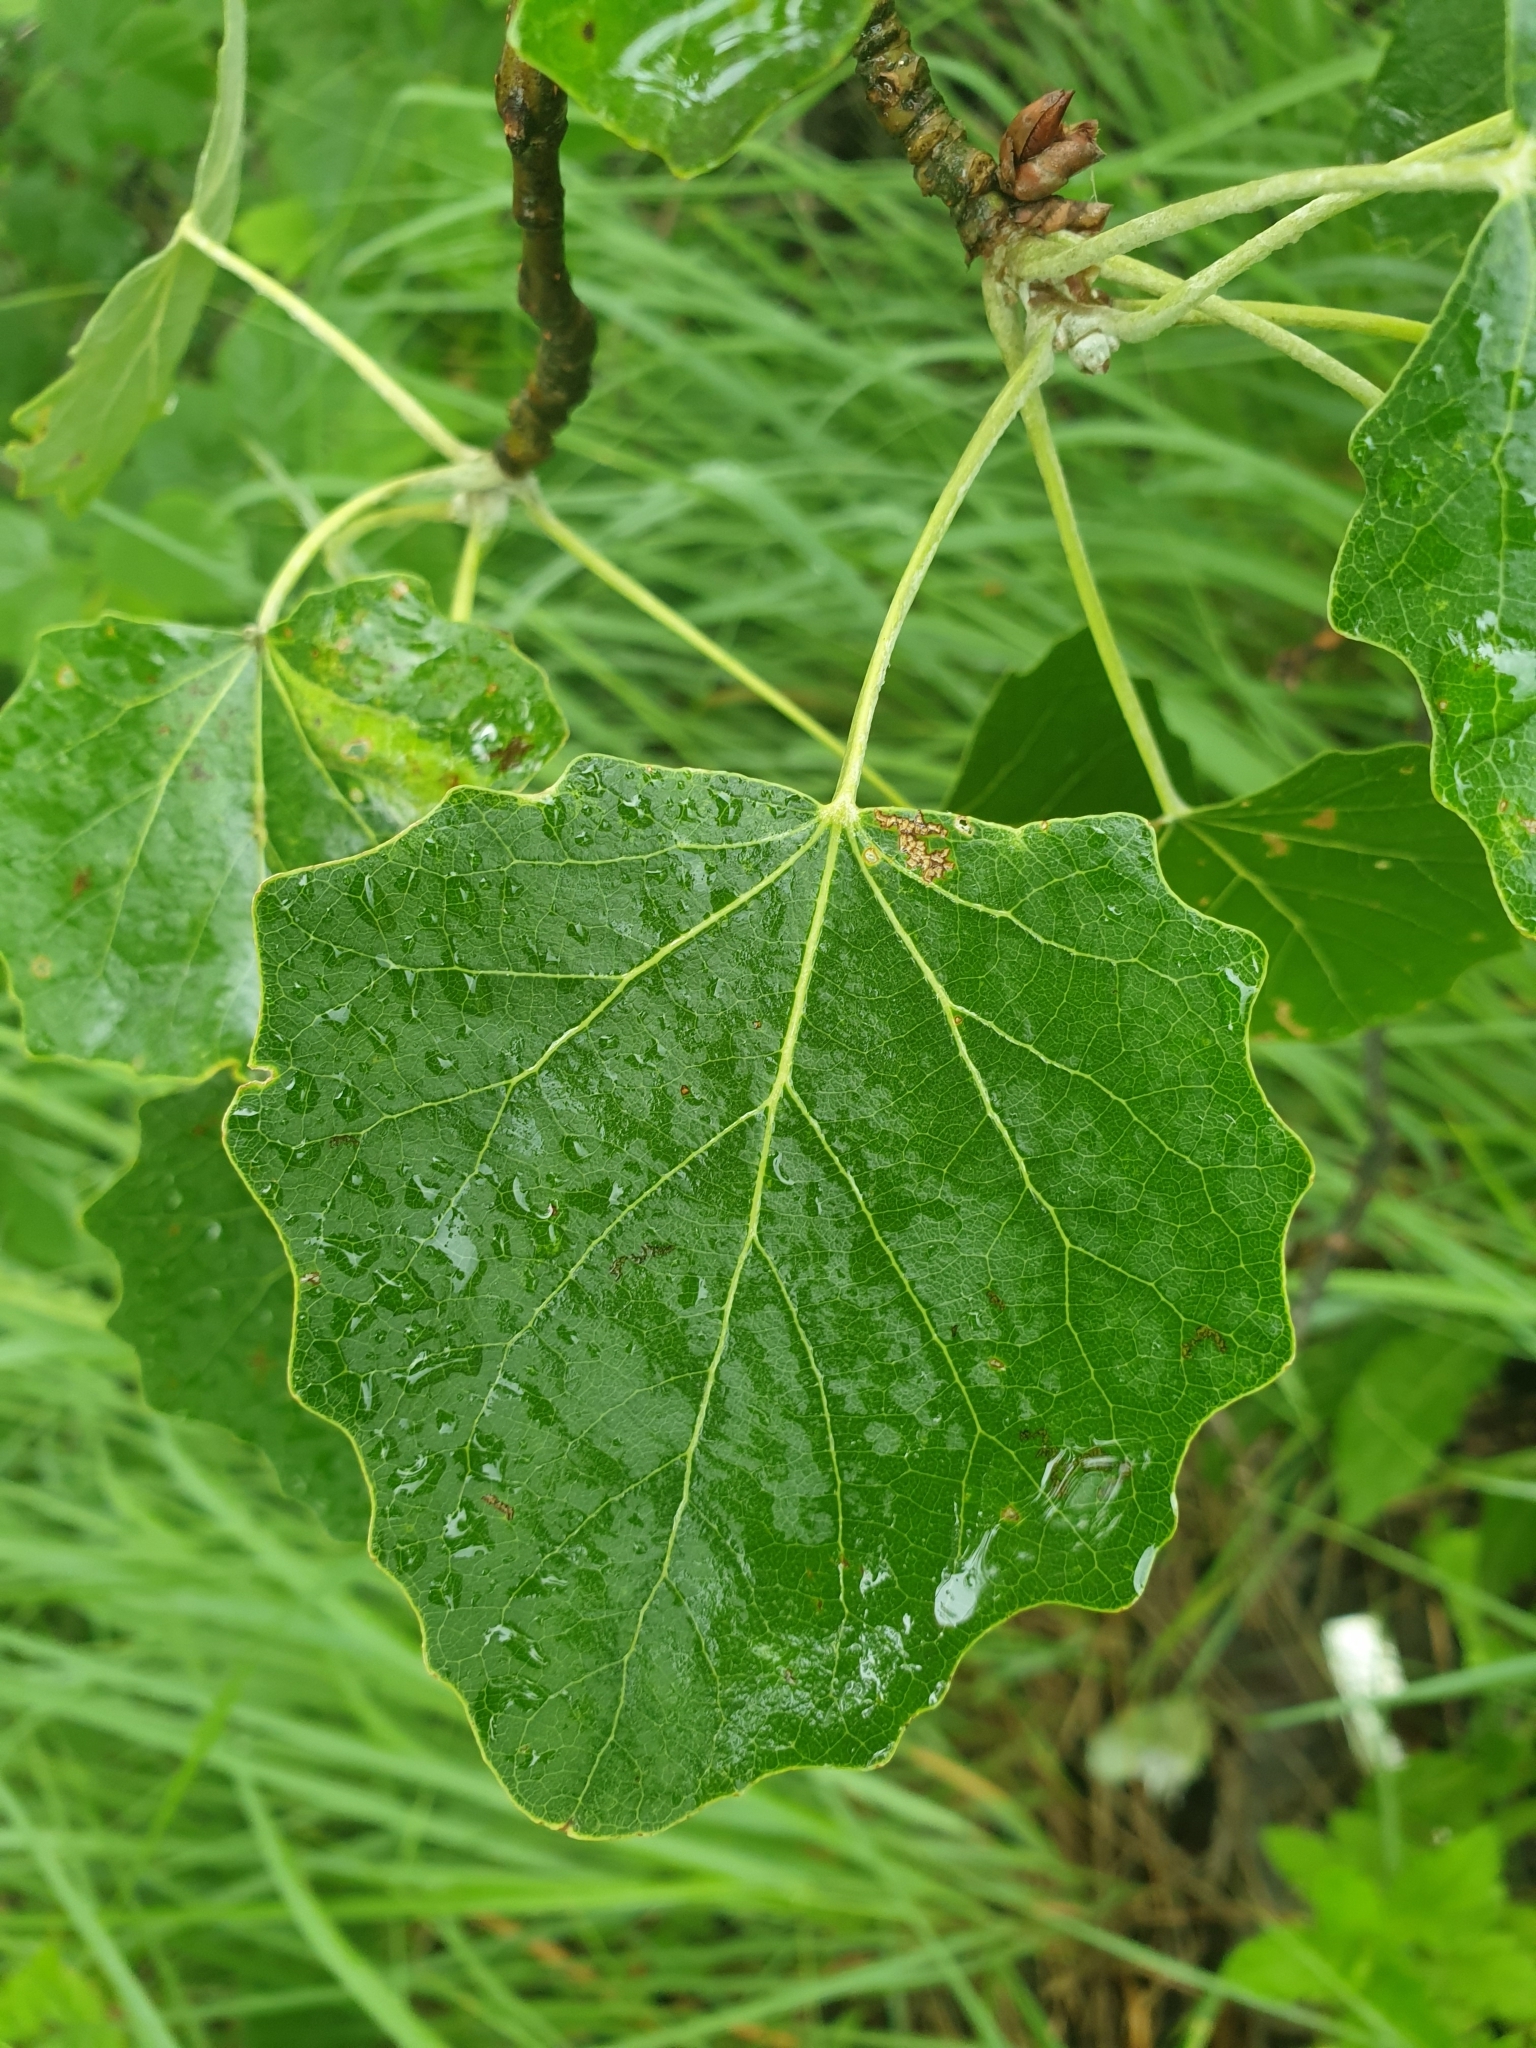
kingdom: Plantae
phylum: Tracheophyta
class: Magnoliopsida
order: Malpighiales
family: Salicaceae
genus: Populus
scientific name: Populus alba
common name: White poplar
